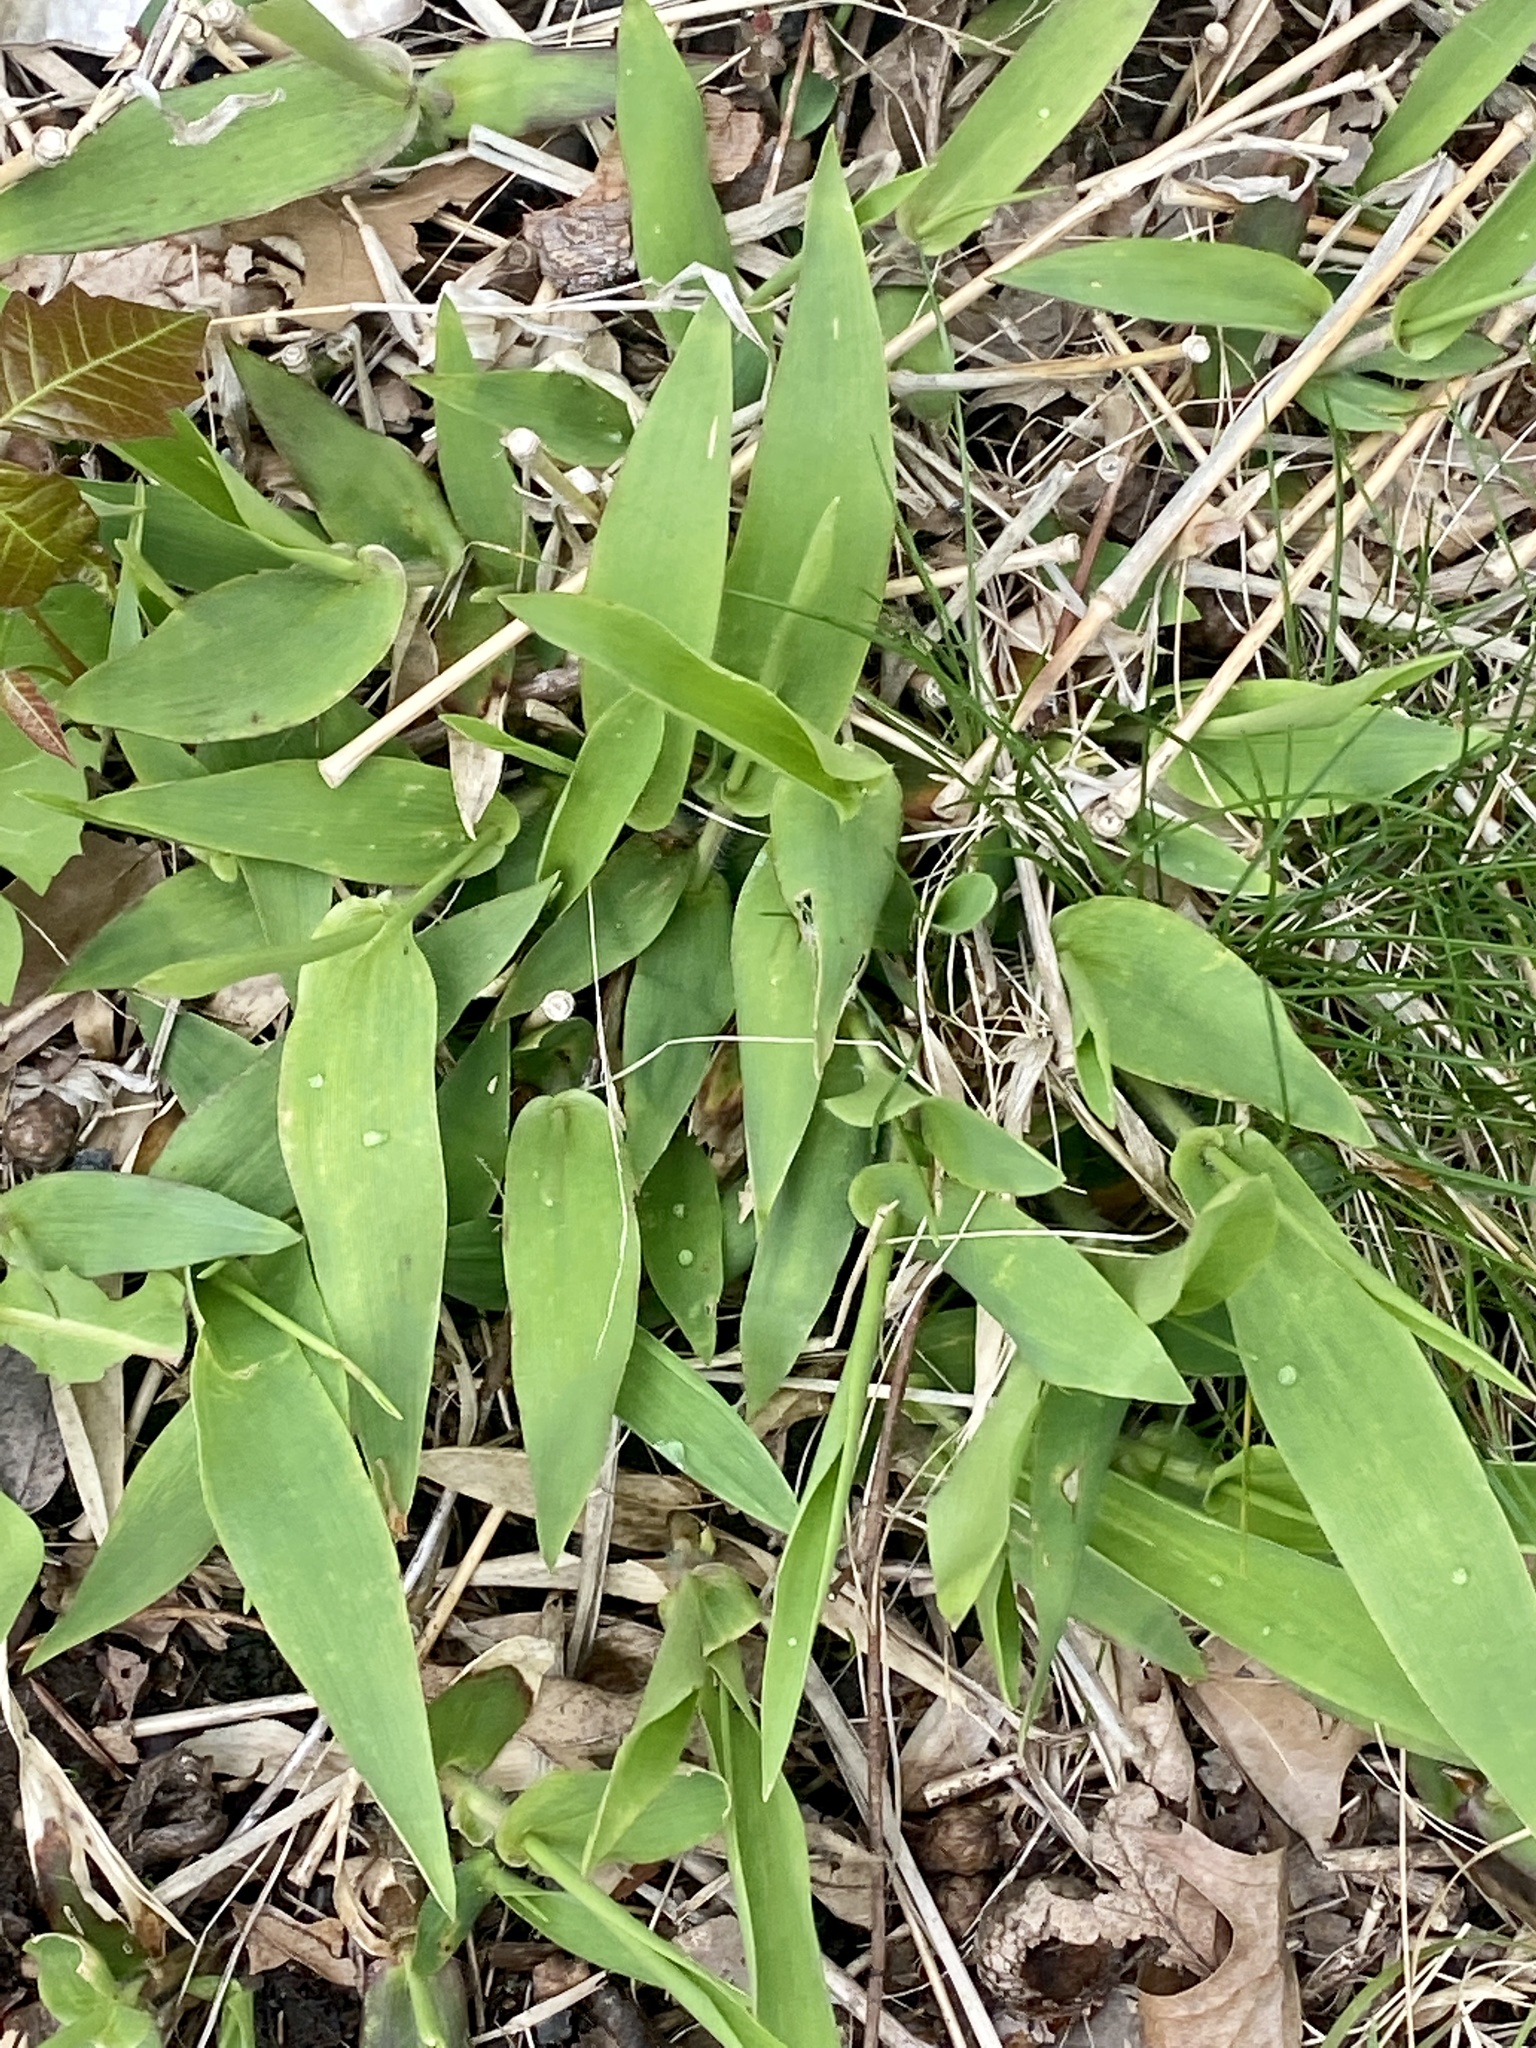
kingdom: Plantae
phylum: Tracheophyta
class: Liliopsida
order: Poales
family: Poaceae
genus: Dichanthelium
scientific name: Dichanthelium clandestinum
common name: Deer-tongue grass
